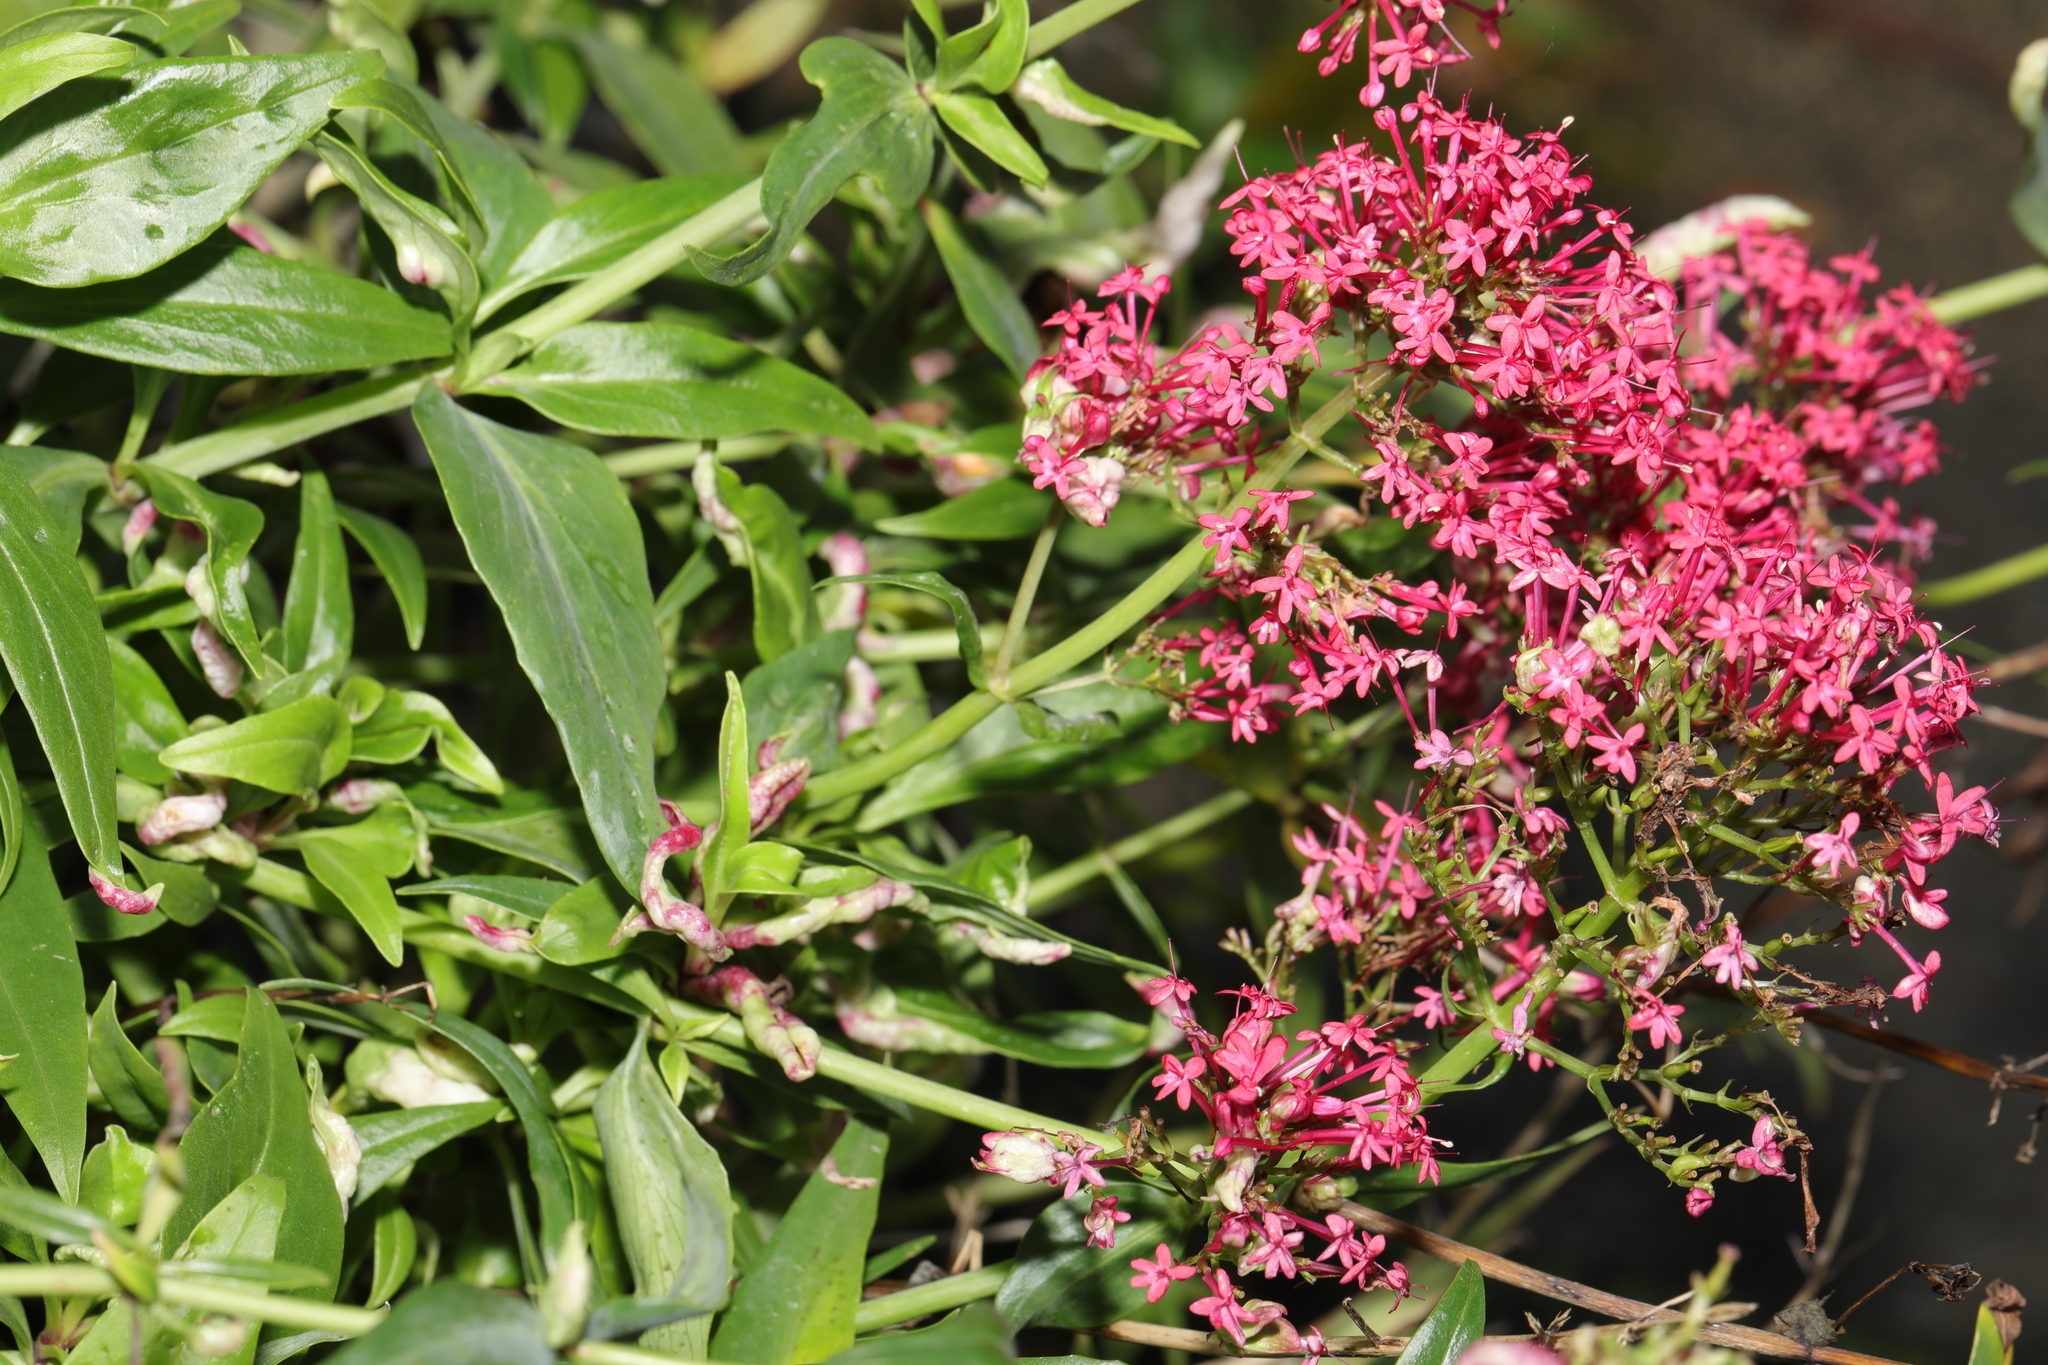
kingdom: Plantae
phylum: Tracheophyta
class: Magnoliopsida
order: Dipsacales
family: Caprifoliaceae
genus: Centranthus
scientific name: Centranthus ruber
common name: Red valerian
